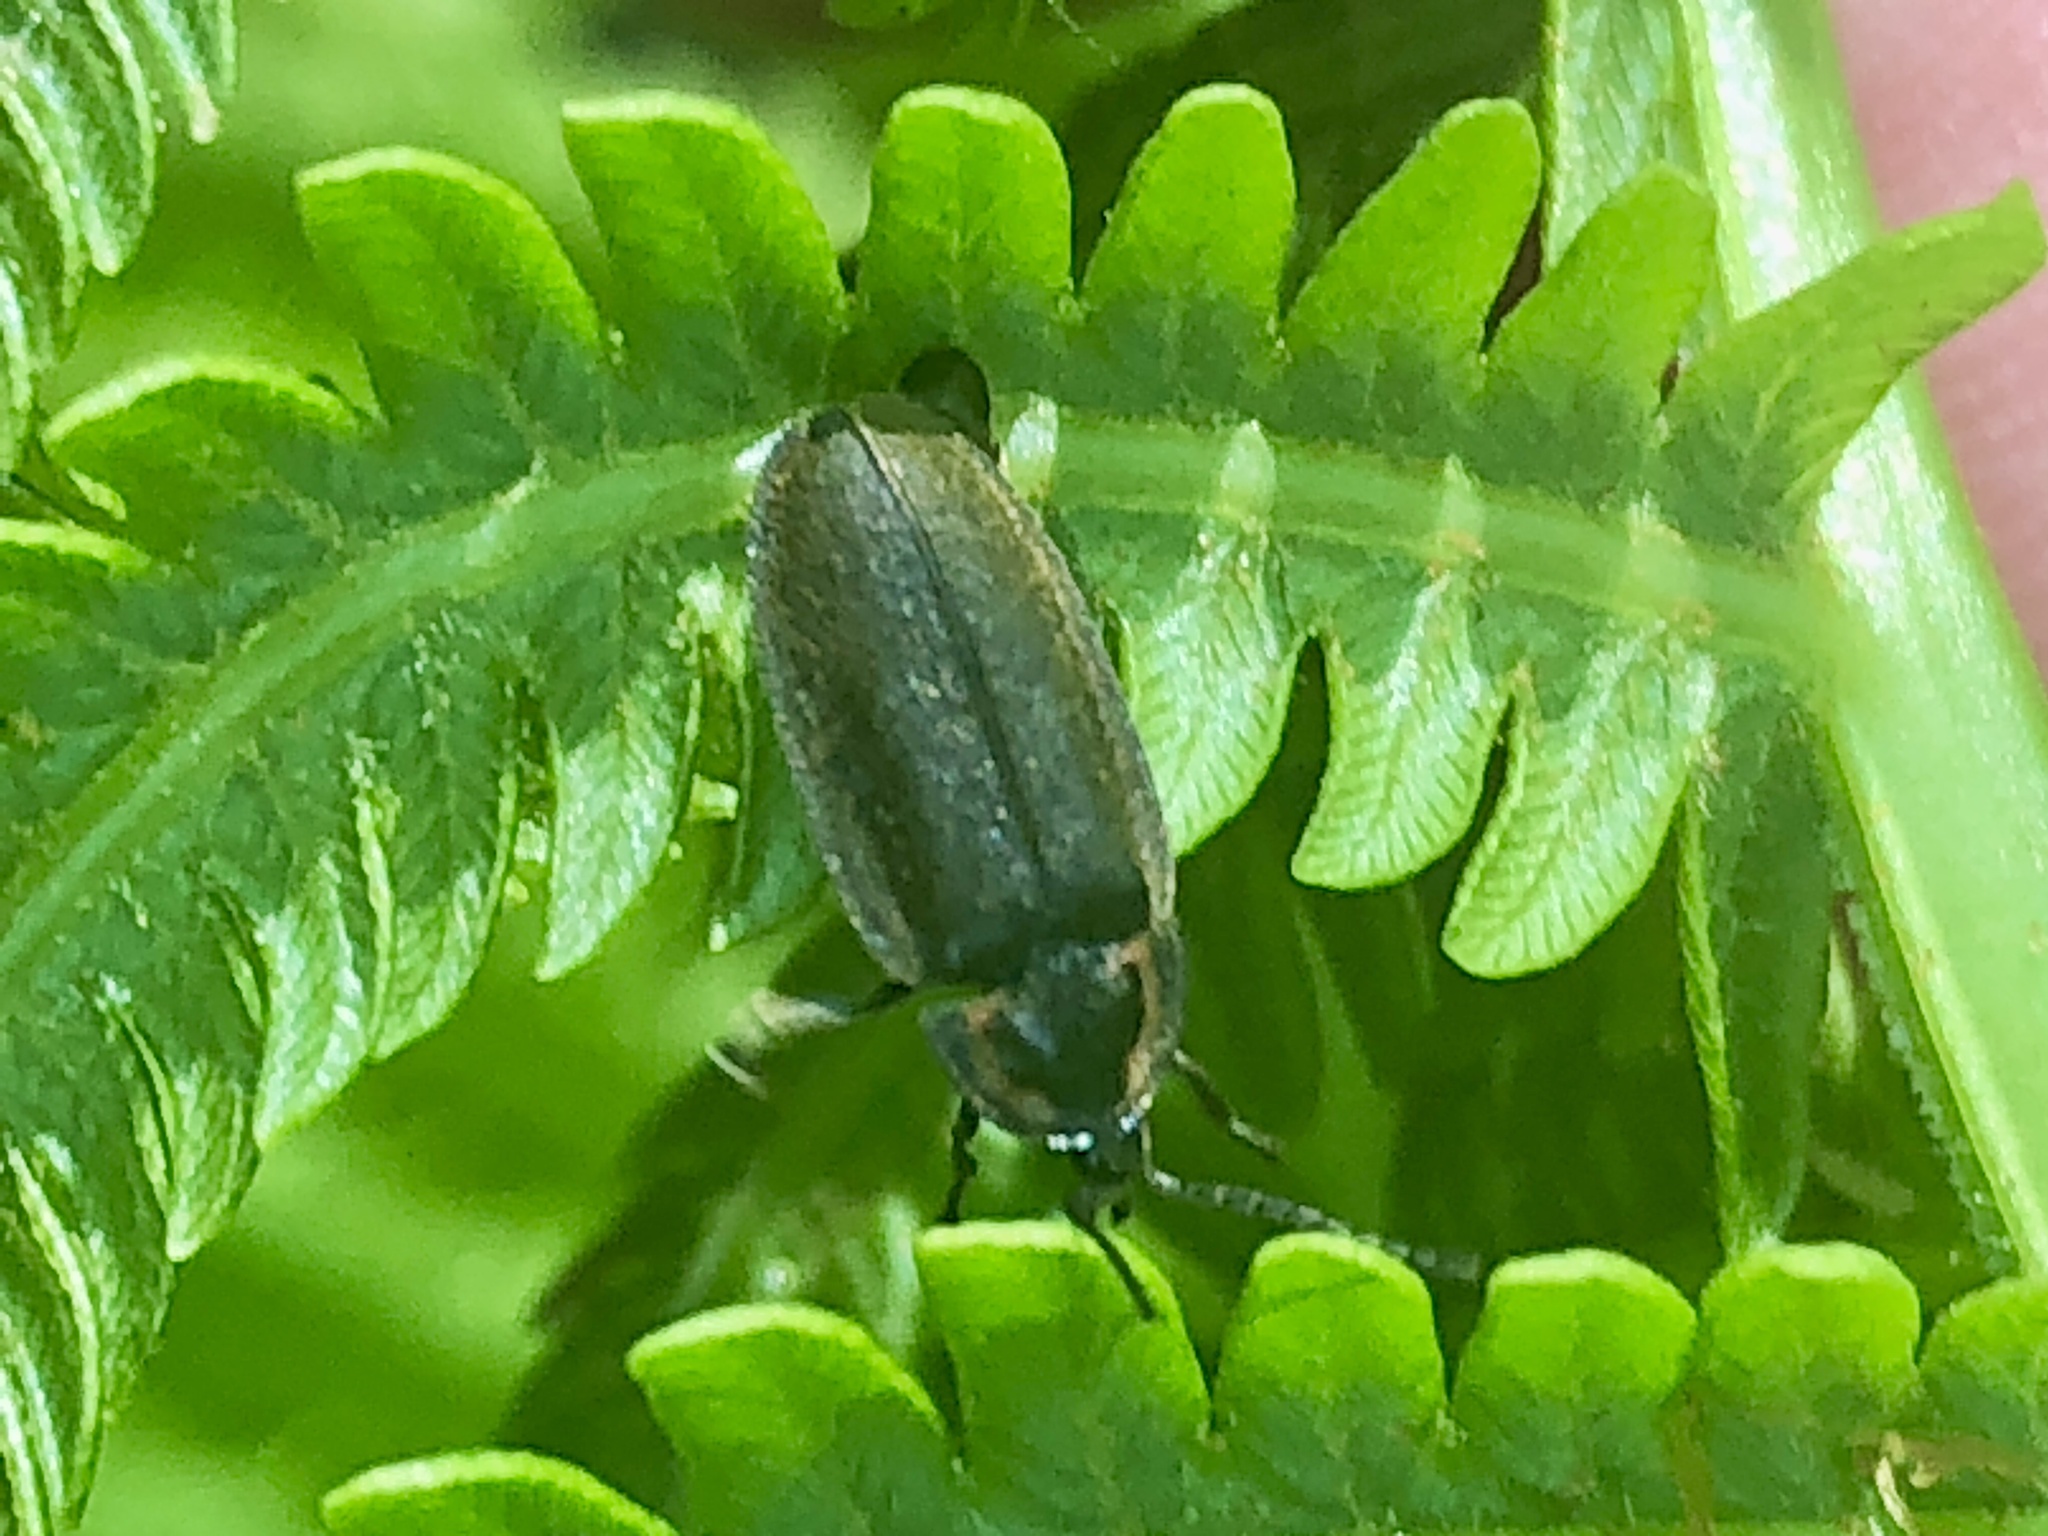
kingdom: Animalia
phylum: Arthropoda
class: Insecta
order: Coleoptera
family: Lampyridae
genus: Photinus
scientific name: Photinus corrusca
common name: Winter firefly
